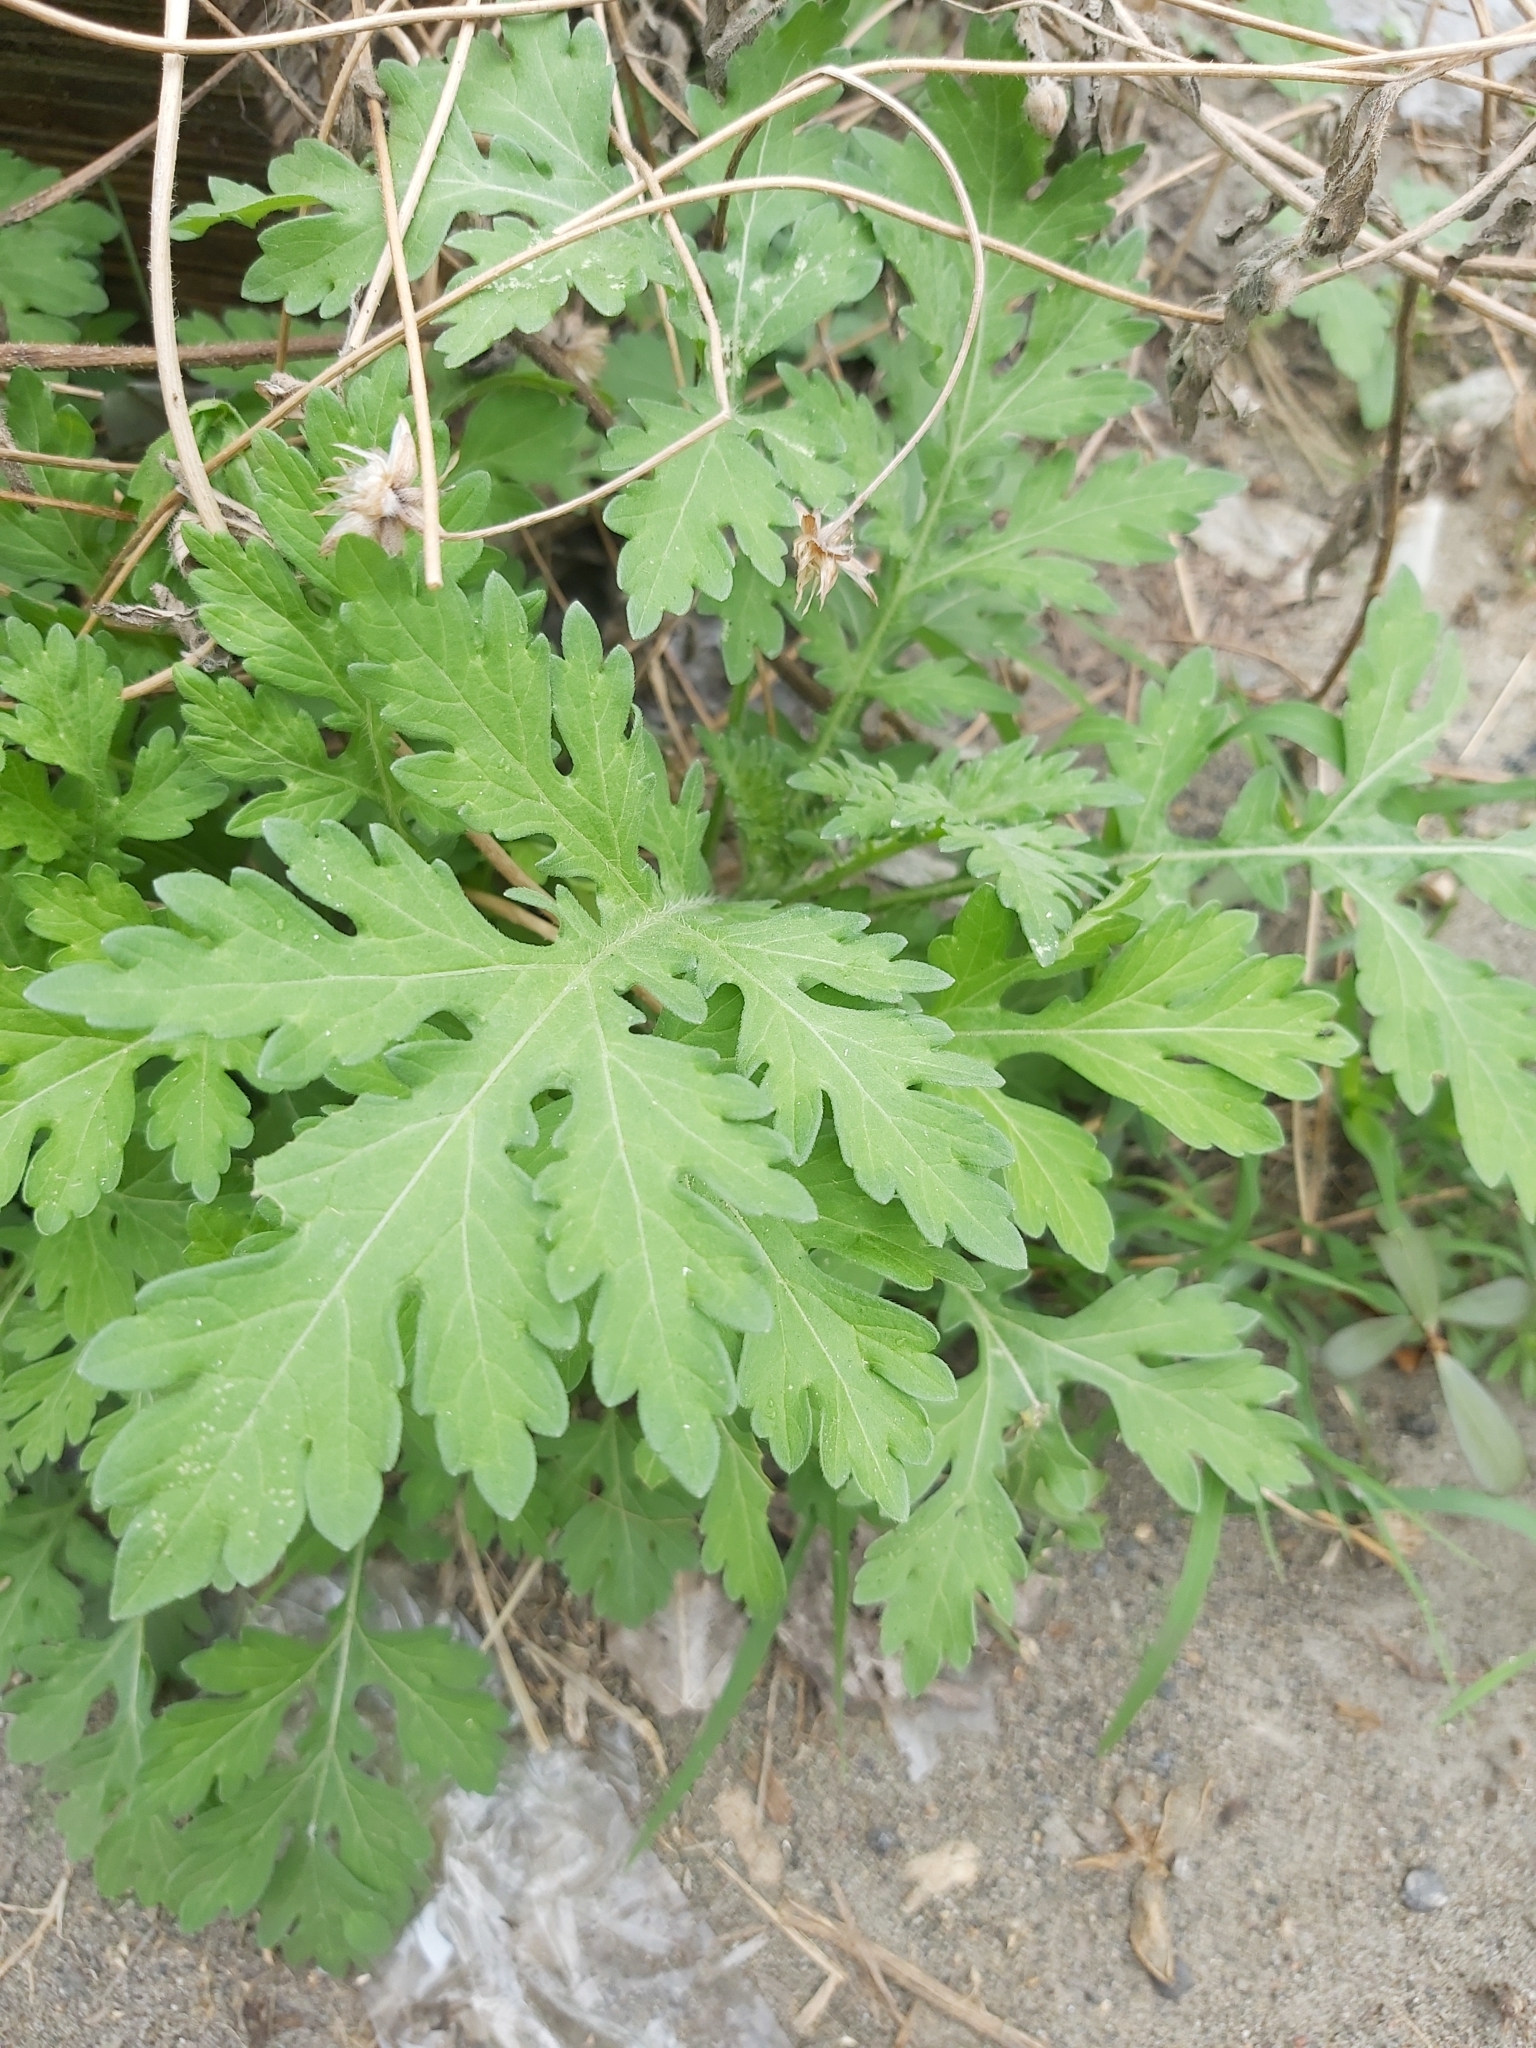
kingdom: Plantae
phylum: Tracheophyta
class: Magnoliopsida
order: Asterales
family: Asteraceae
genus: Parthenium
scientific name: Parthenium hysterophorus
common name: Santa maria feverfew
